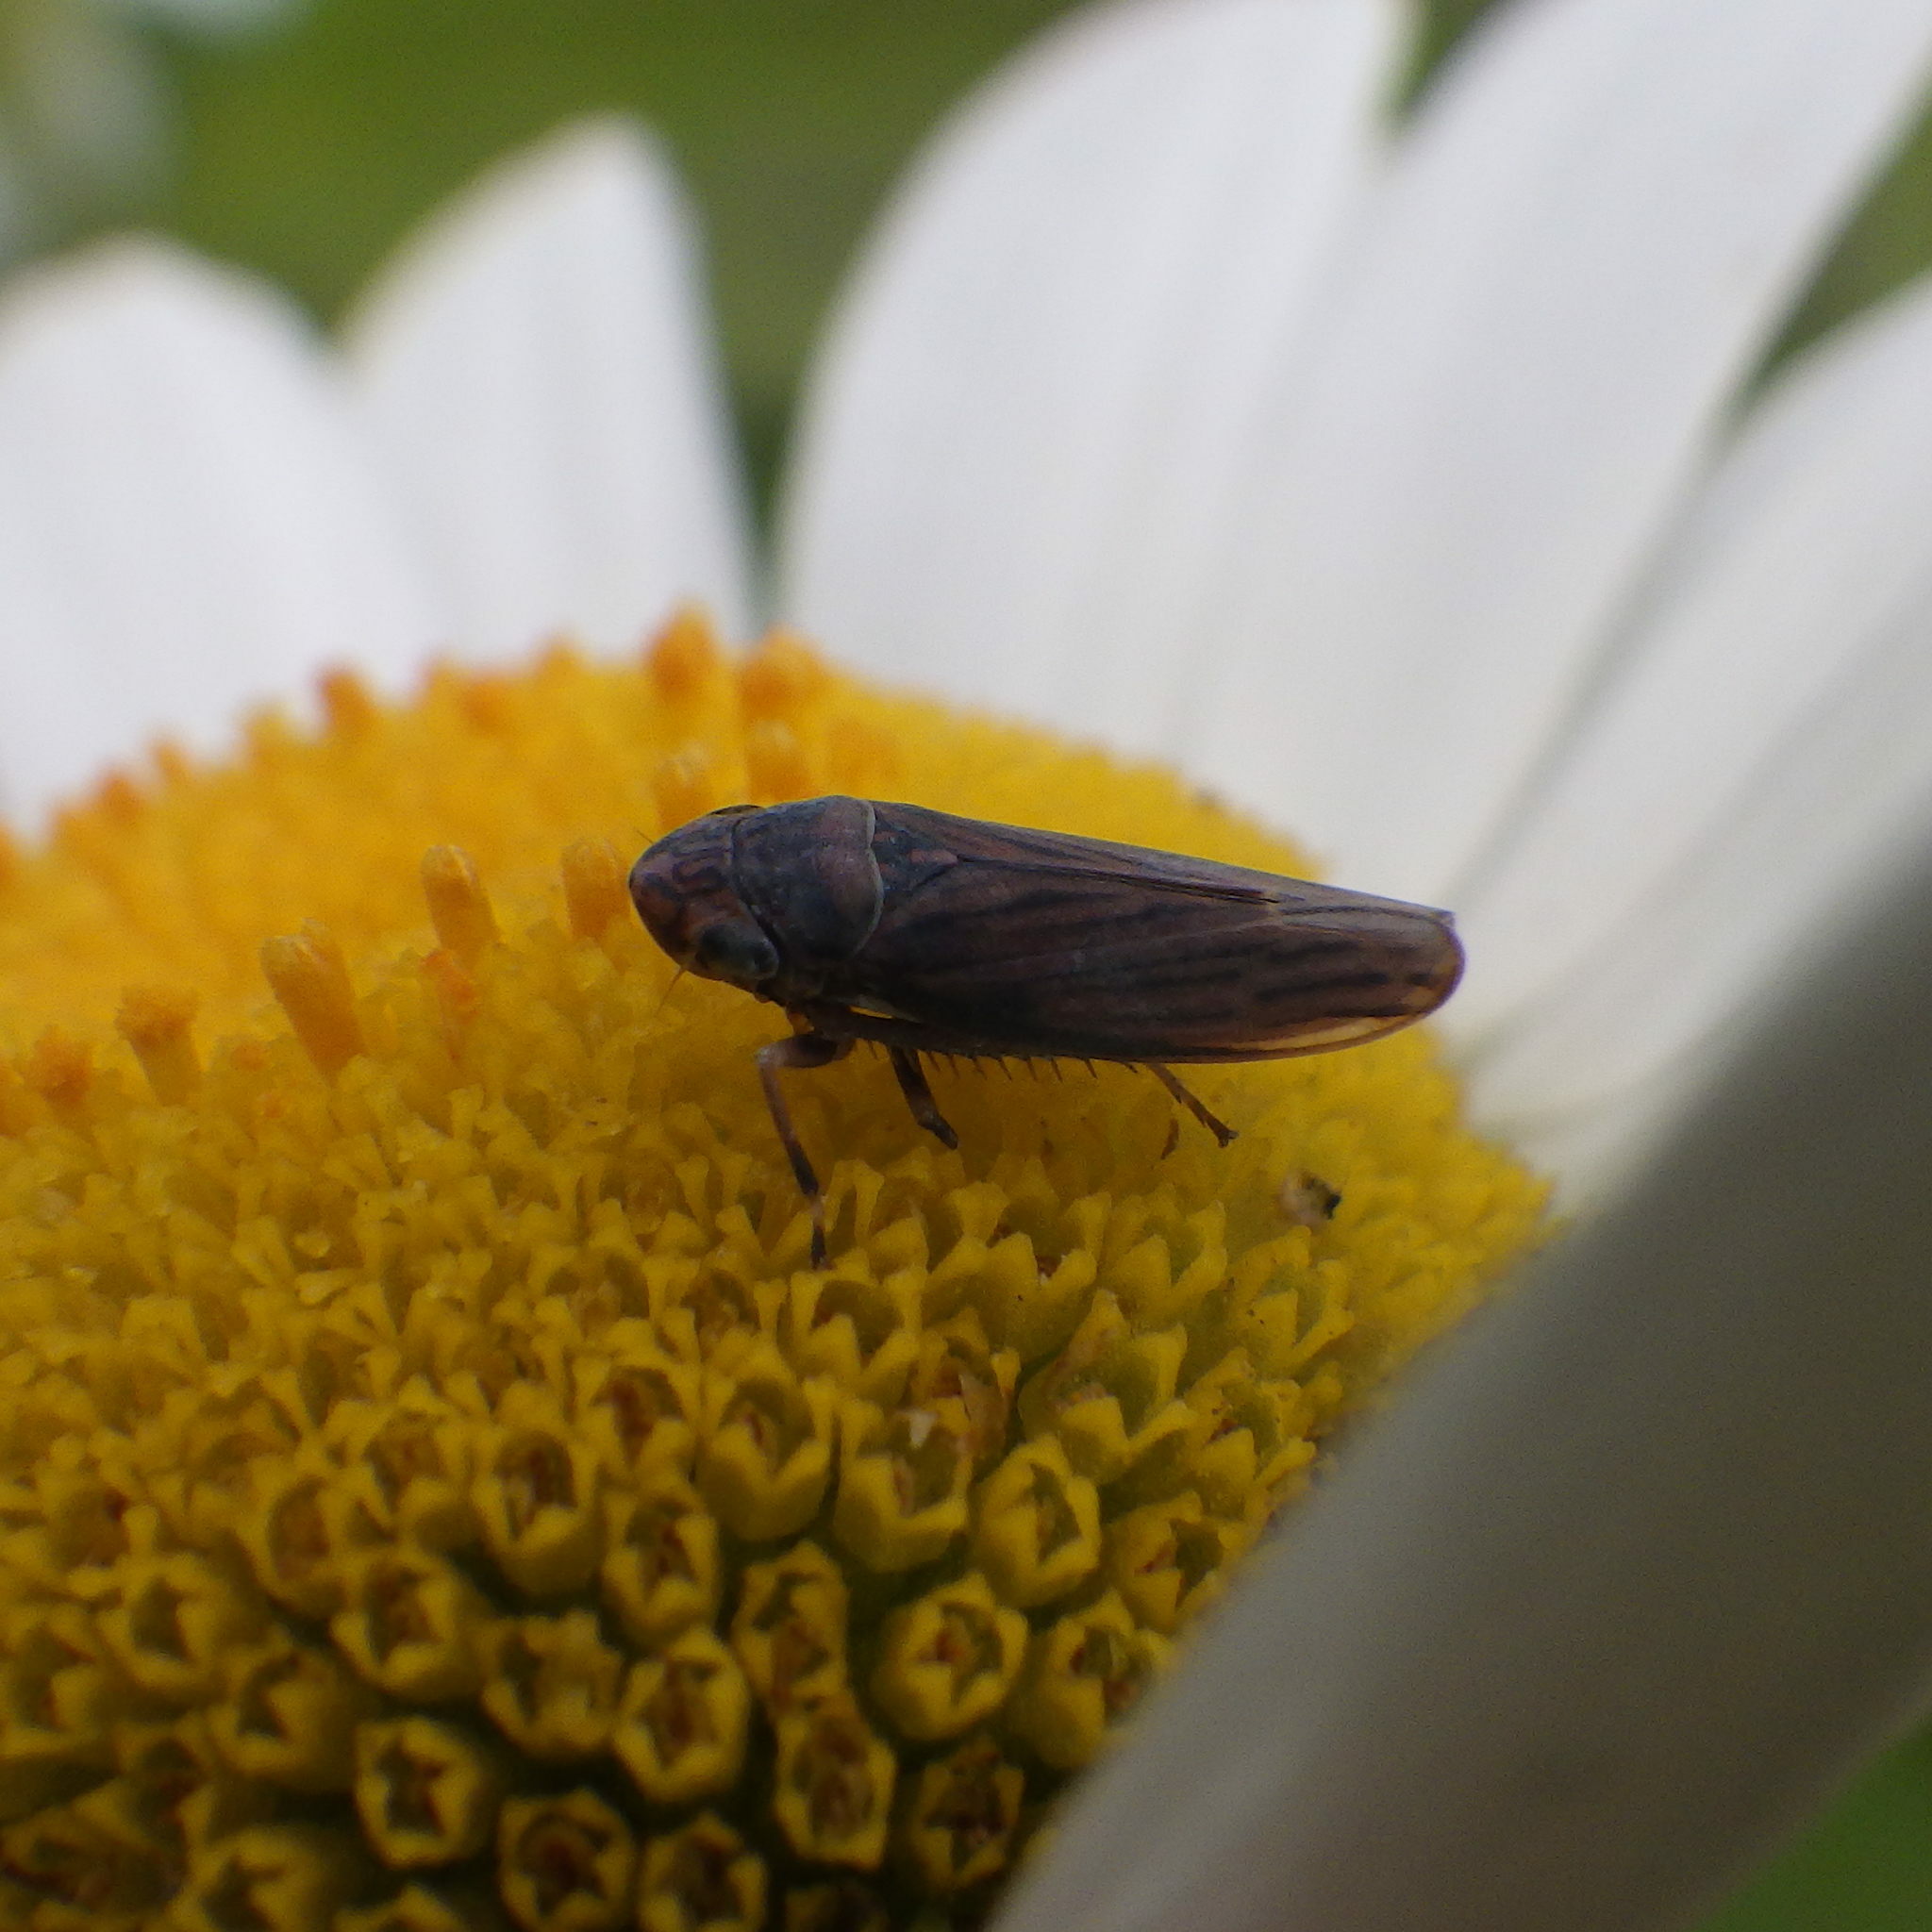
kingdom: Animalia
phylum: Arthropoda
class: Insecta
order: Hemiptera
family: Cicadellidae
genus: Neokolla
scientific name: Neokolla hieroglyphica
